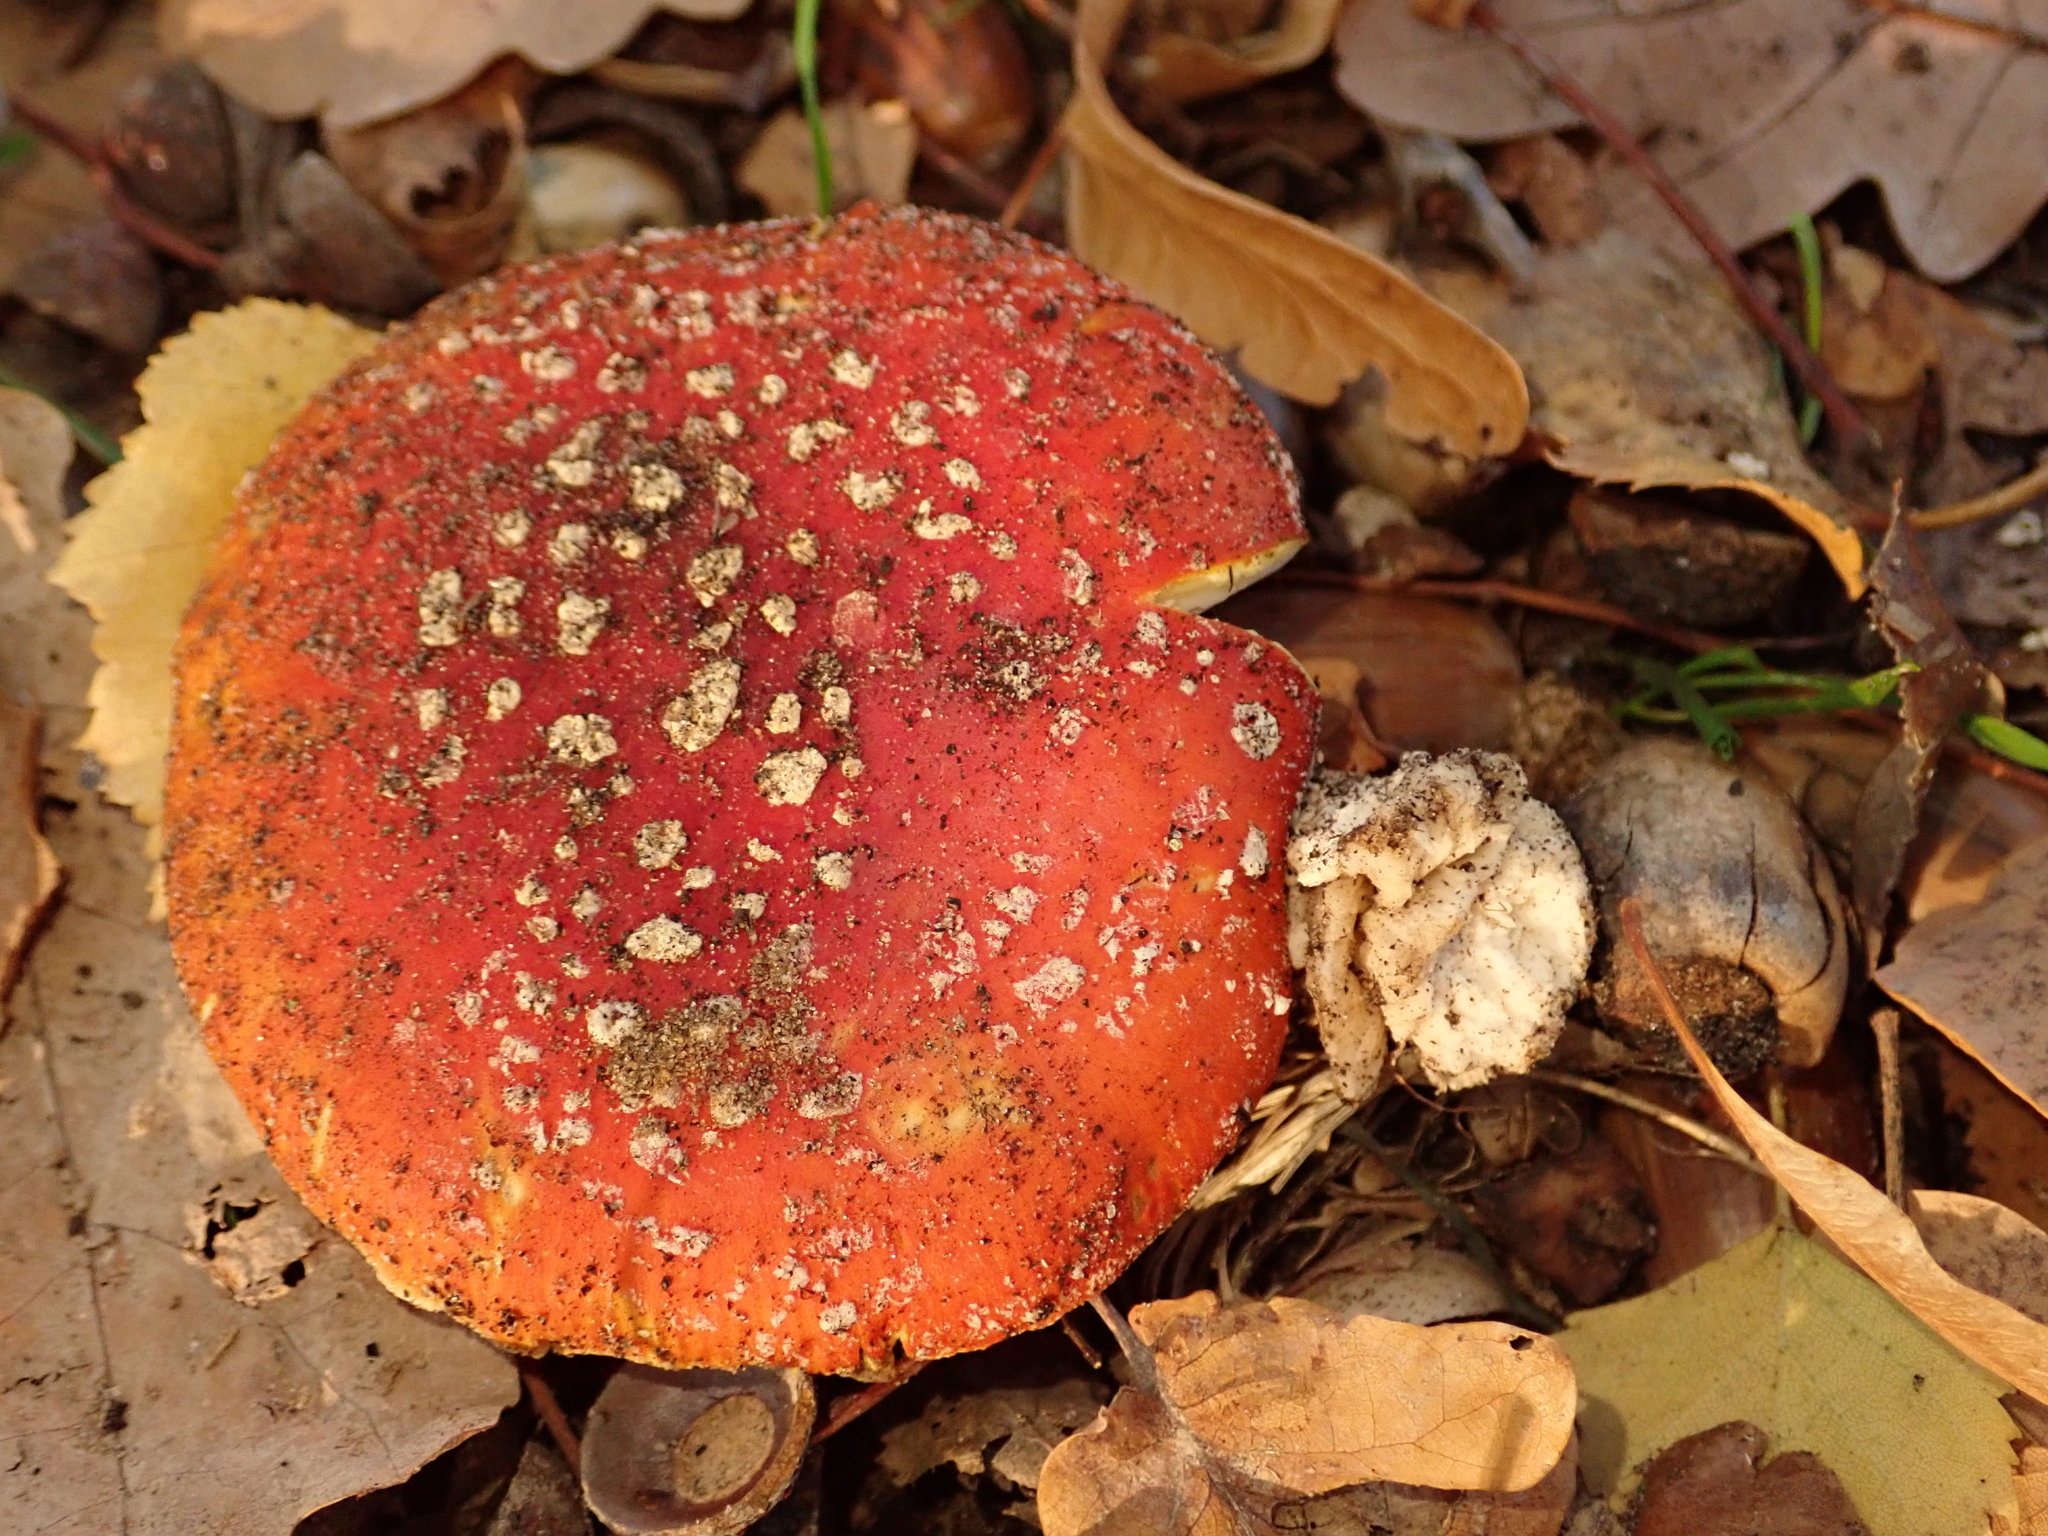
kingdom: Fungi
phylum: Basidiomycota
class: Agaricomycetes
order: Agaricales
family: Amanitaceae
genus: Amanita
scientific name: Amanita muscaria
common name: Fly agaric
